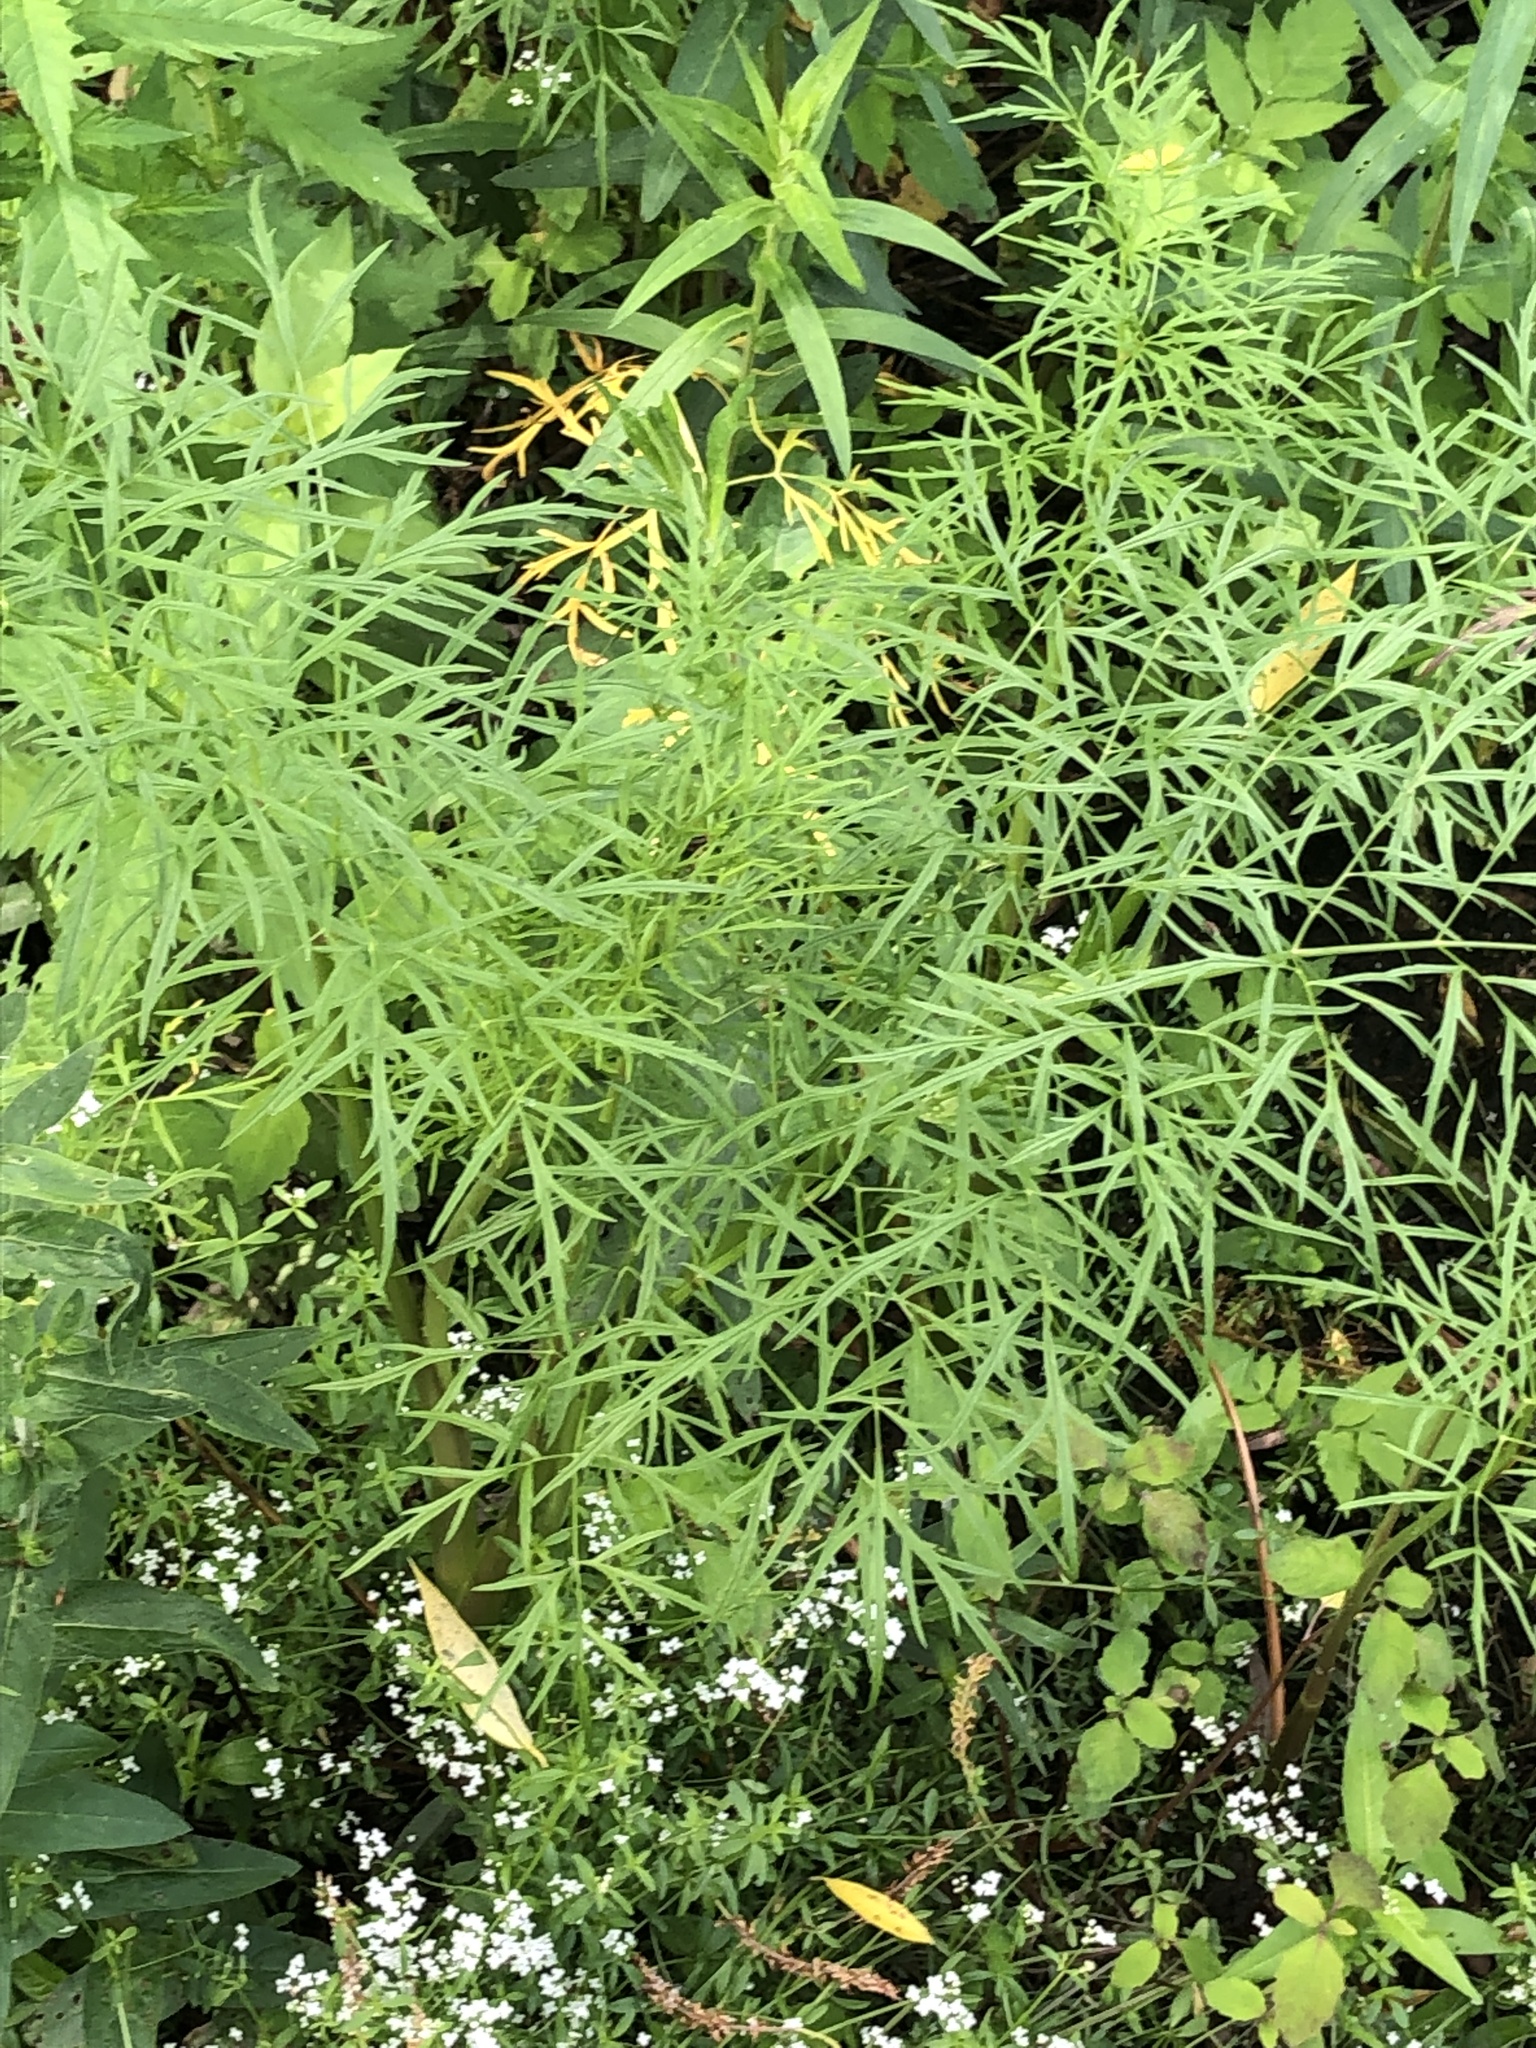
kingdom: Plantae
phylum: Tracheophyta
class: Magnoliopsida
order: Apiales
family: Apiaceae
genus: Cicuta
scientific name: Cicuta bulbifera
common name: Bulb-bearing water-hemlock
